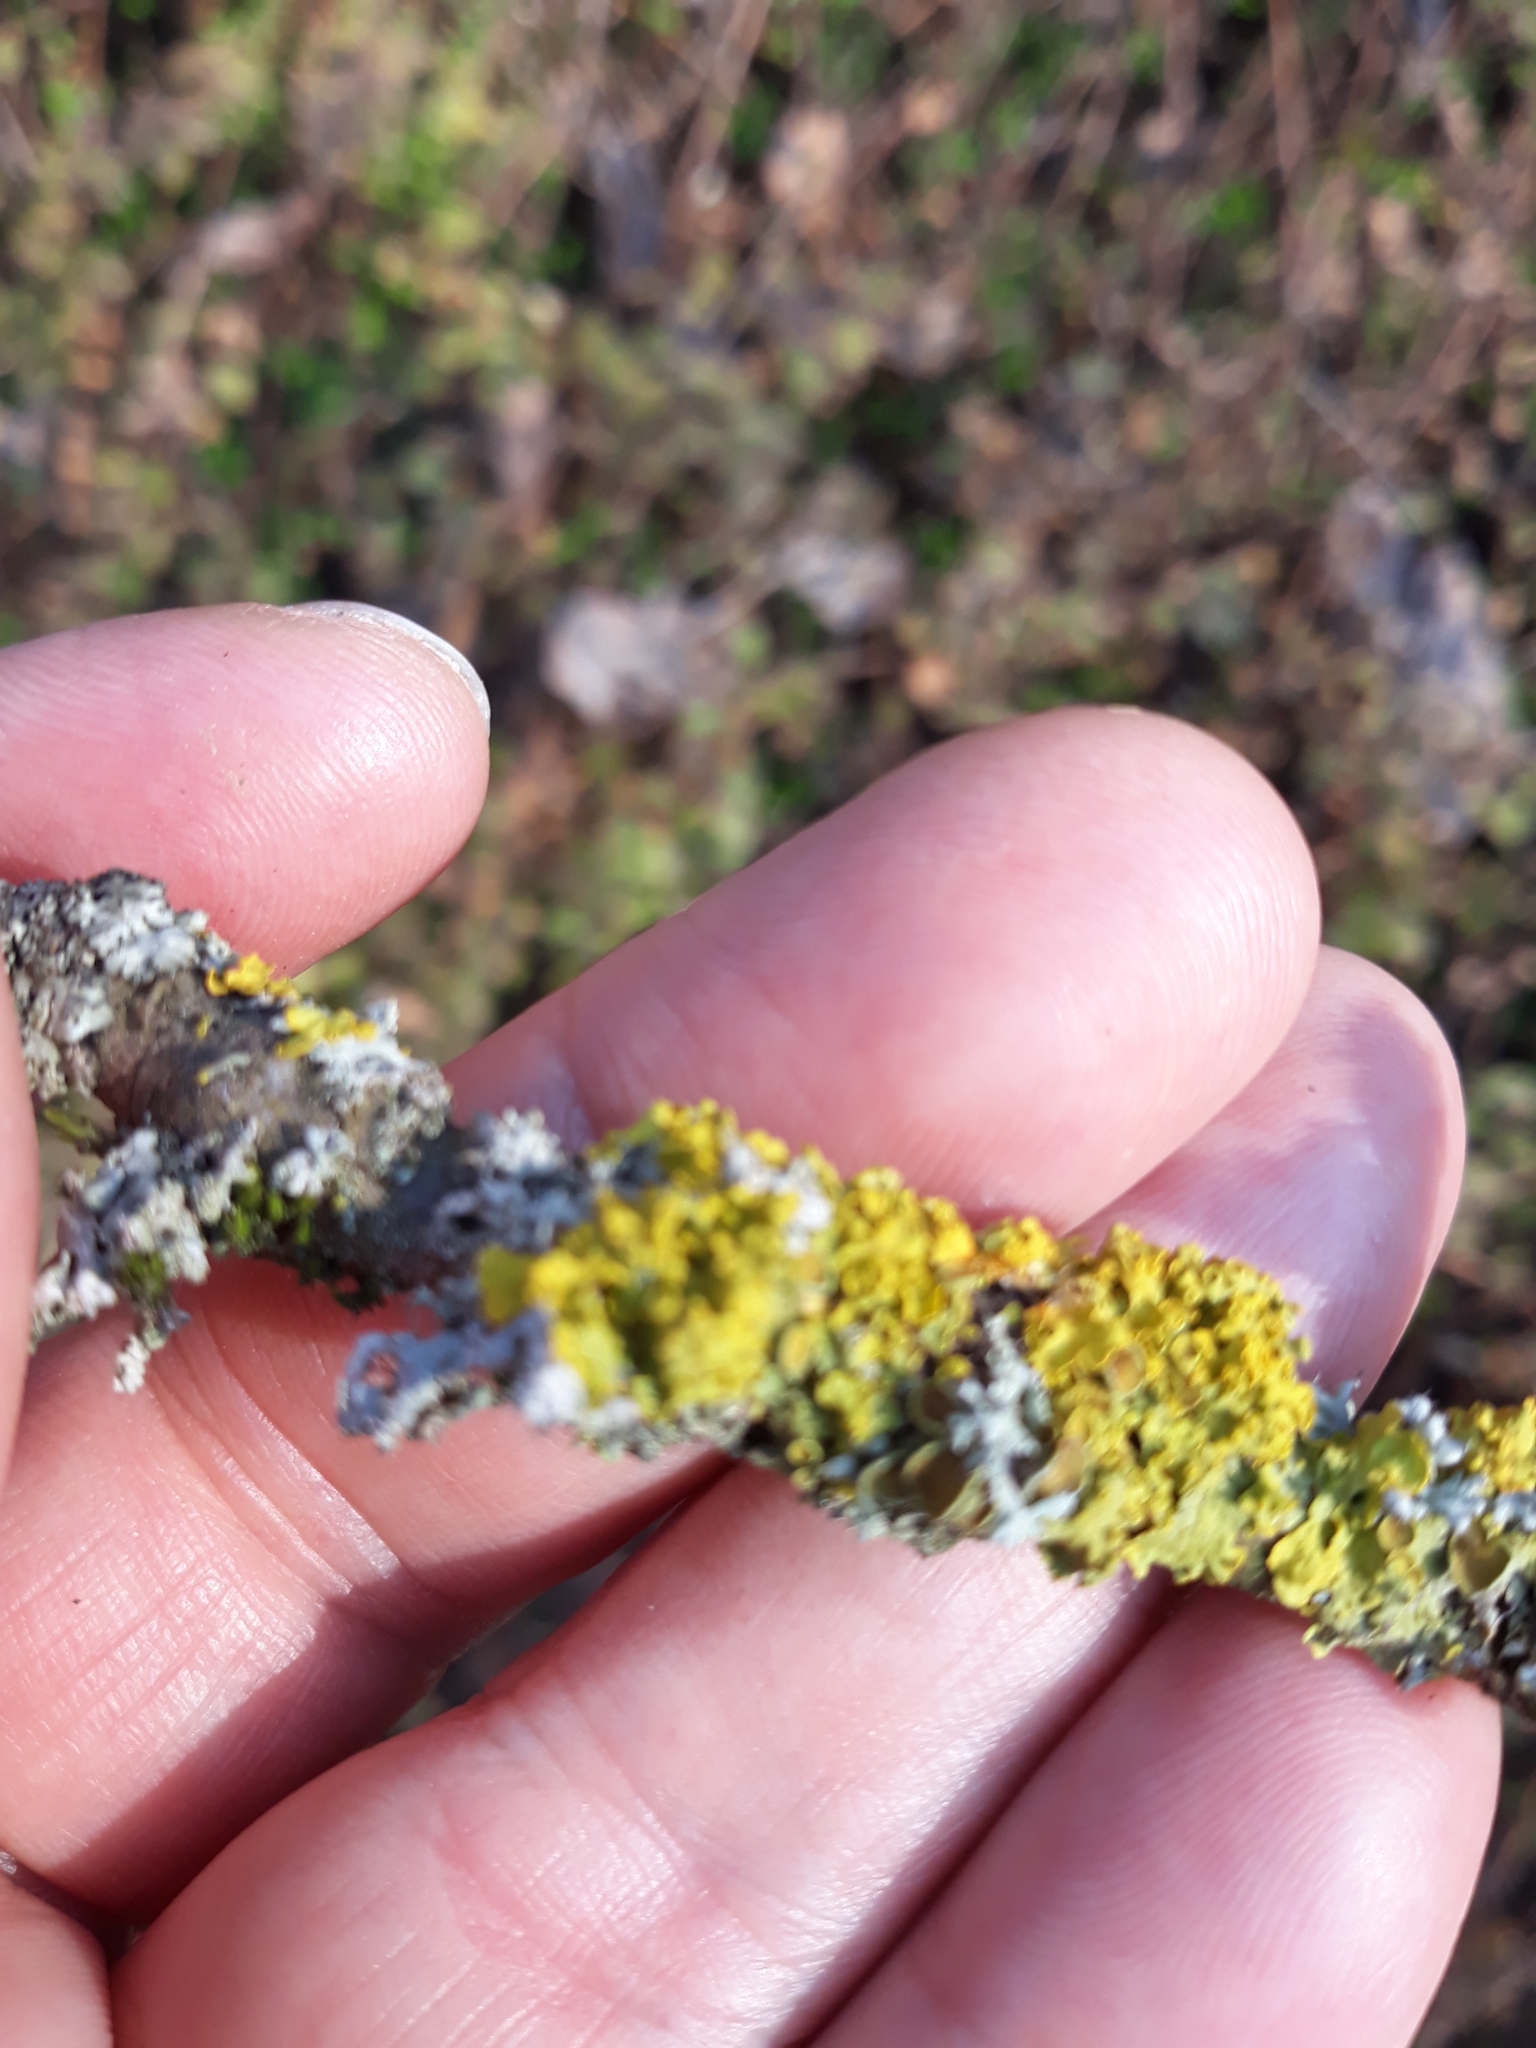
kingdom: Fungi
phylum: Ascomycota
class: Lecanoromycetes
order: Teloschistales
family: Teloschistaceae
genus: Xanthoria
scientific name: Xanthoria parietina
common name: Common orange lichen
